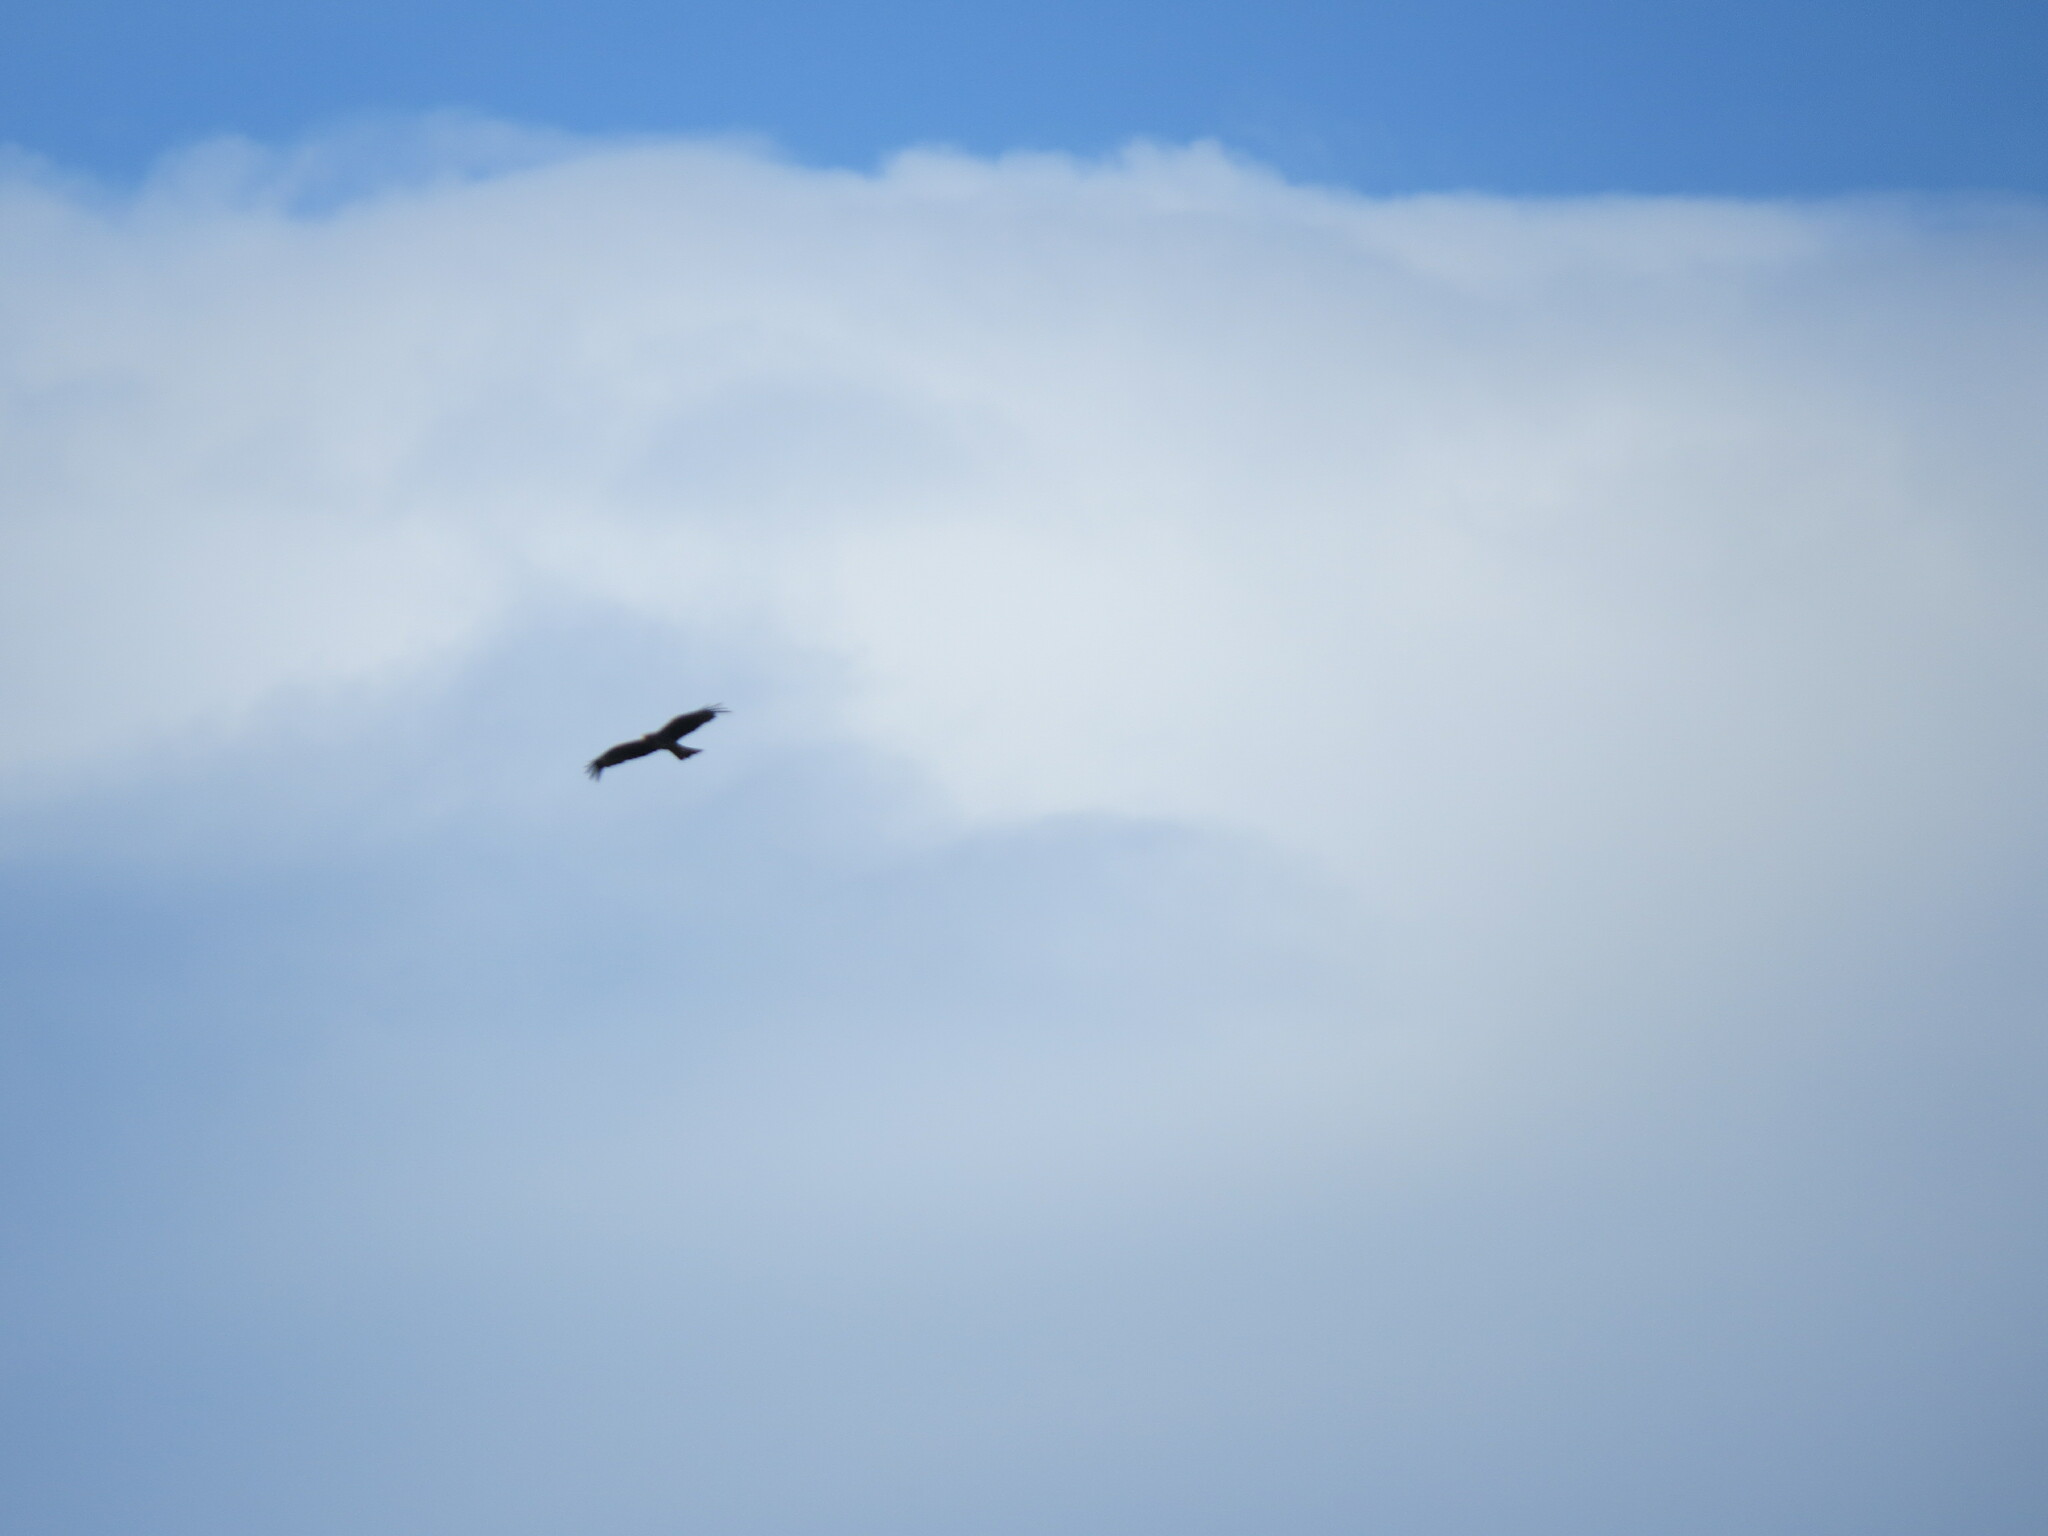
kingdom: Animalia
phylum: Chordata
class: Aves
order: Accipitriformes
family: Accipitridae
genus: Milvus
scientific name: Milvus migrans
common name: Black kite
